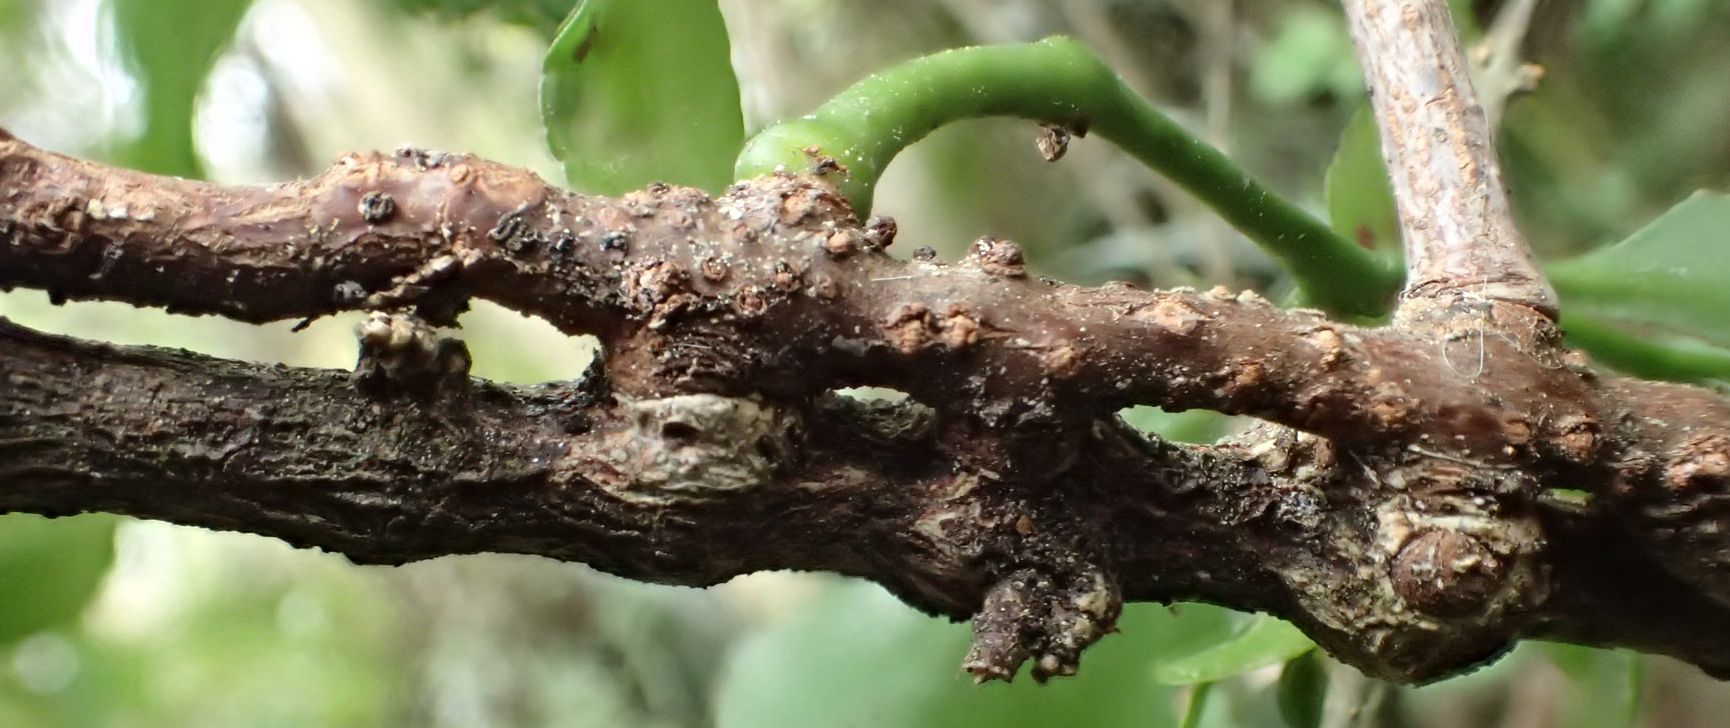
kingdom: Plantae
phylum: Tracheophyta
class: Magnoliopsida
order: Santalales
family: Loranthaceae
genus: Ileostylus
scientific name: Ileostylus micranthus
